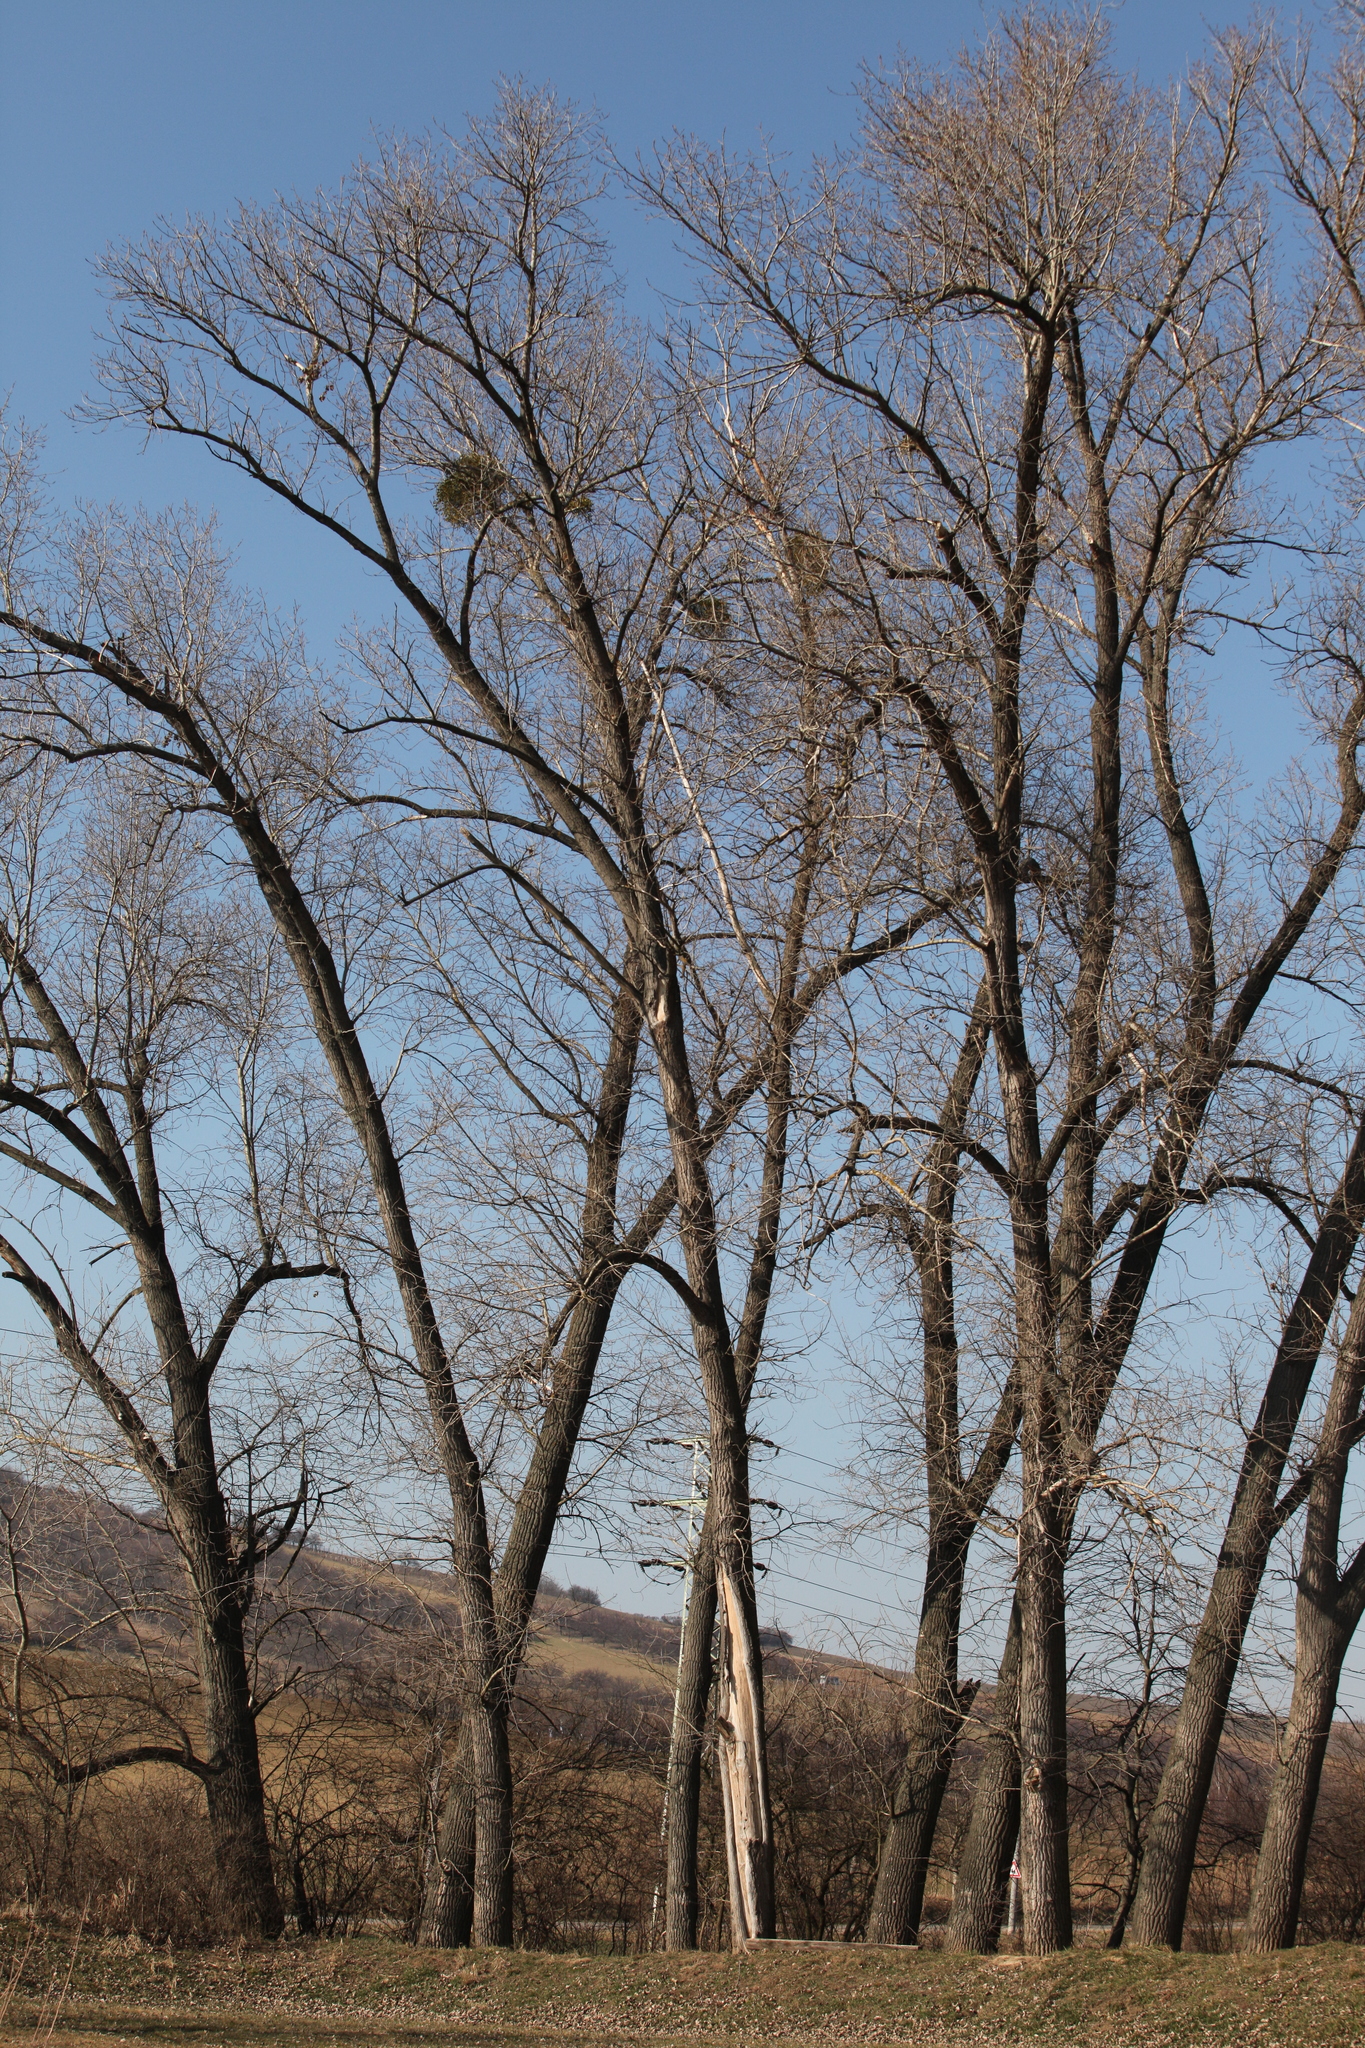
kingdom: Plantae
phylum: Tracheophyta
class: Magnoliopsida
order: Malpighiales
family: Salicaceae
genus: Populus
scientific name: Populus tremula
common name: European aspen
